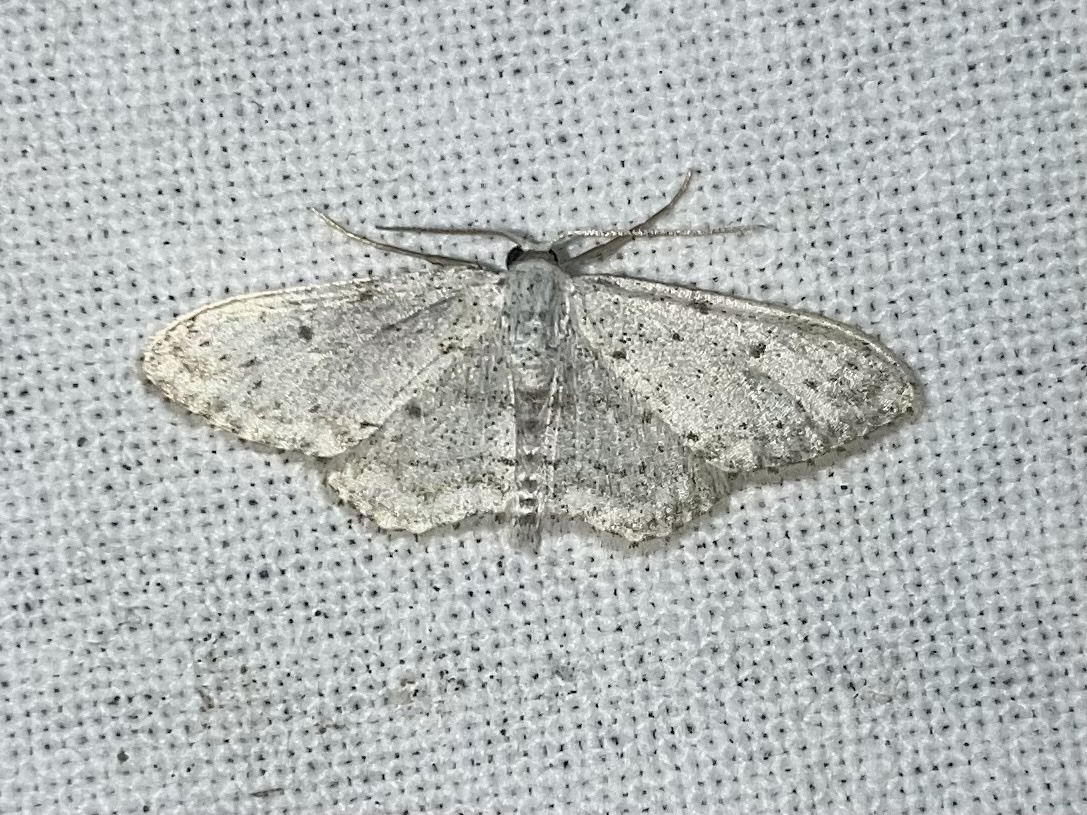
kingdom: Animalia
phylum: Arthropoda
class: Insecta
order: Lepidoptera
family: Geometridae
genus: Idaea
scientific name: Idaea seriata
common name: Small dusty wave
